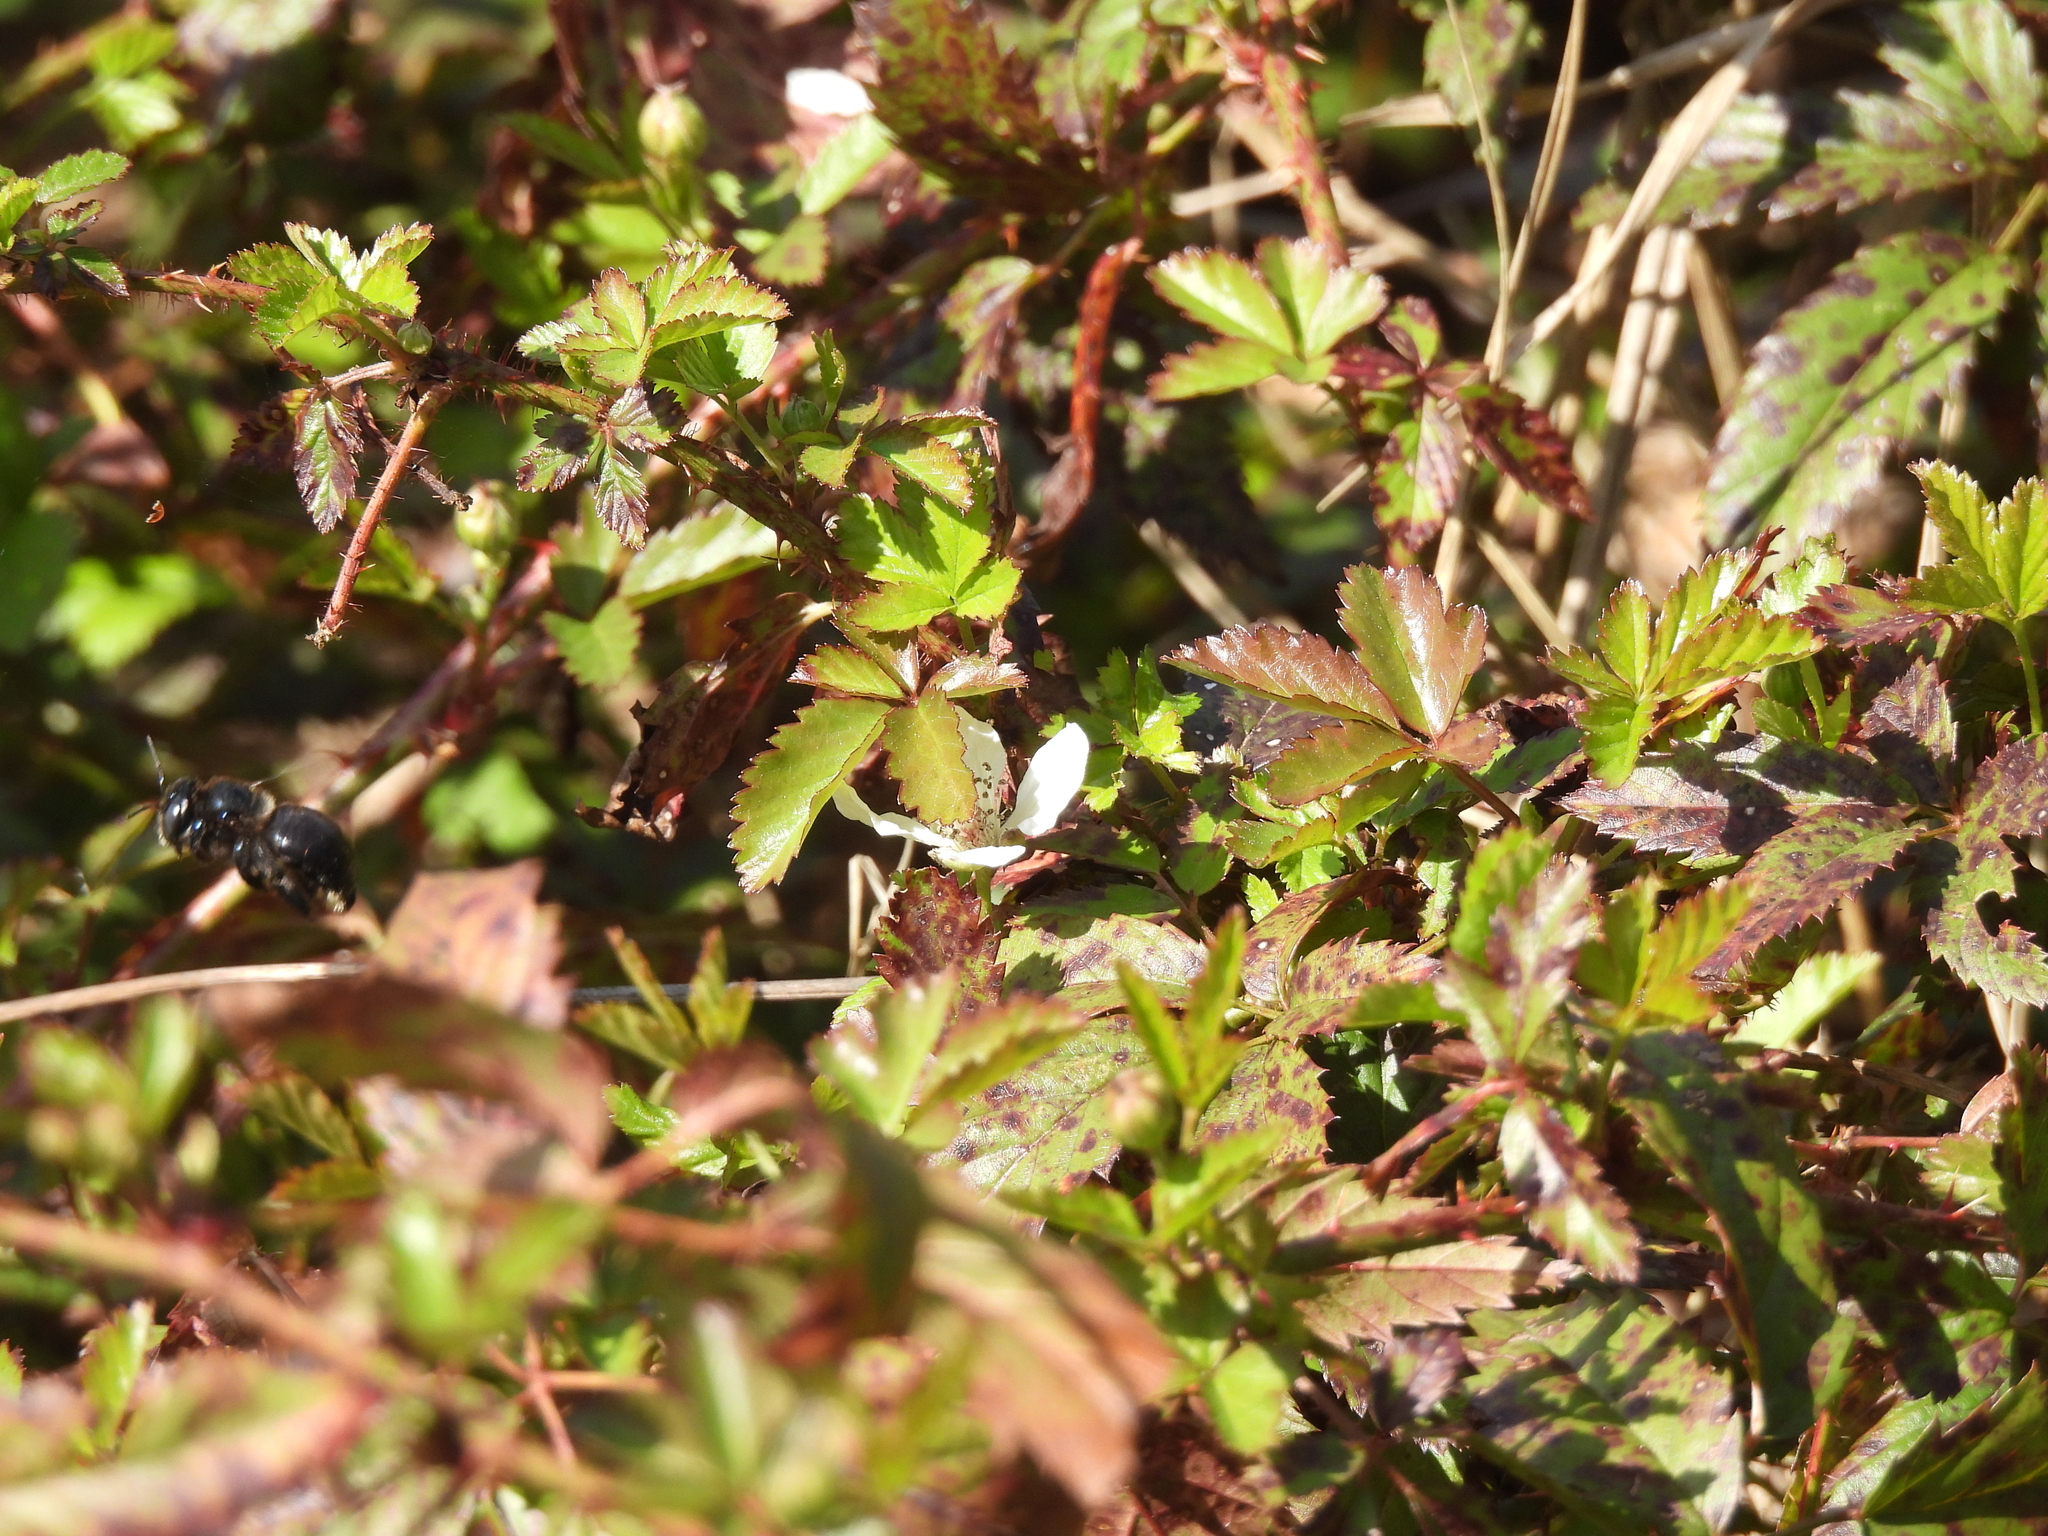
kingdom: Animalia
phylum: Arthropoda
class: Insecta
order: Hymenoptera
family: Apidae
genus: Xylocopa
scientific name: Xylocopa micans
